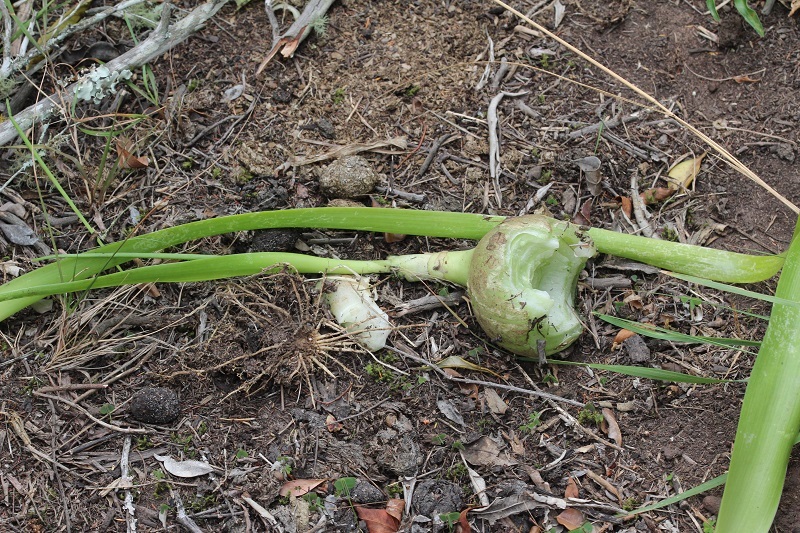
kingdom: Plantae
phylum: Tracheophyta
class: Liliopsida
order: Asparagales
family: Asparagaceae
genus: Albuca
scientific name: Albuca bracteata
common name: Sea-onion
